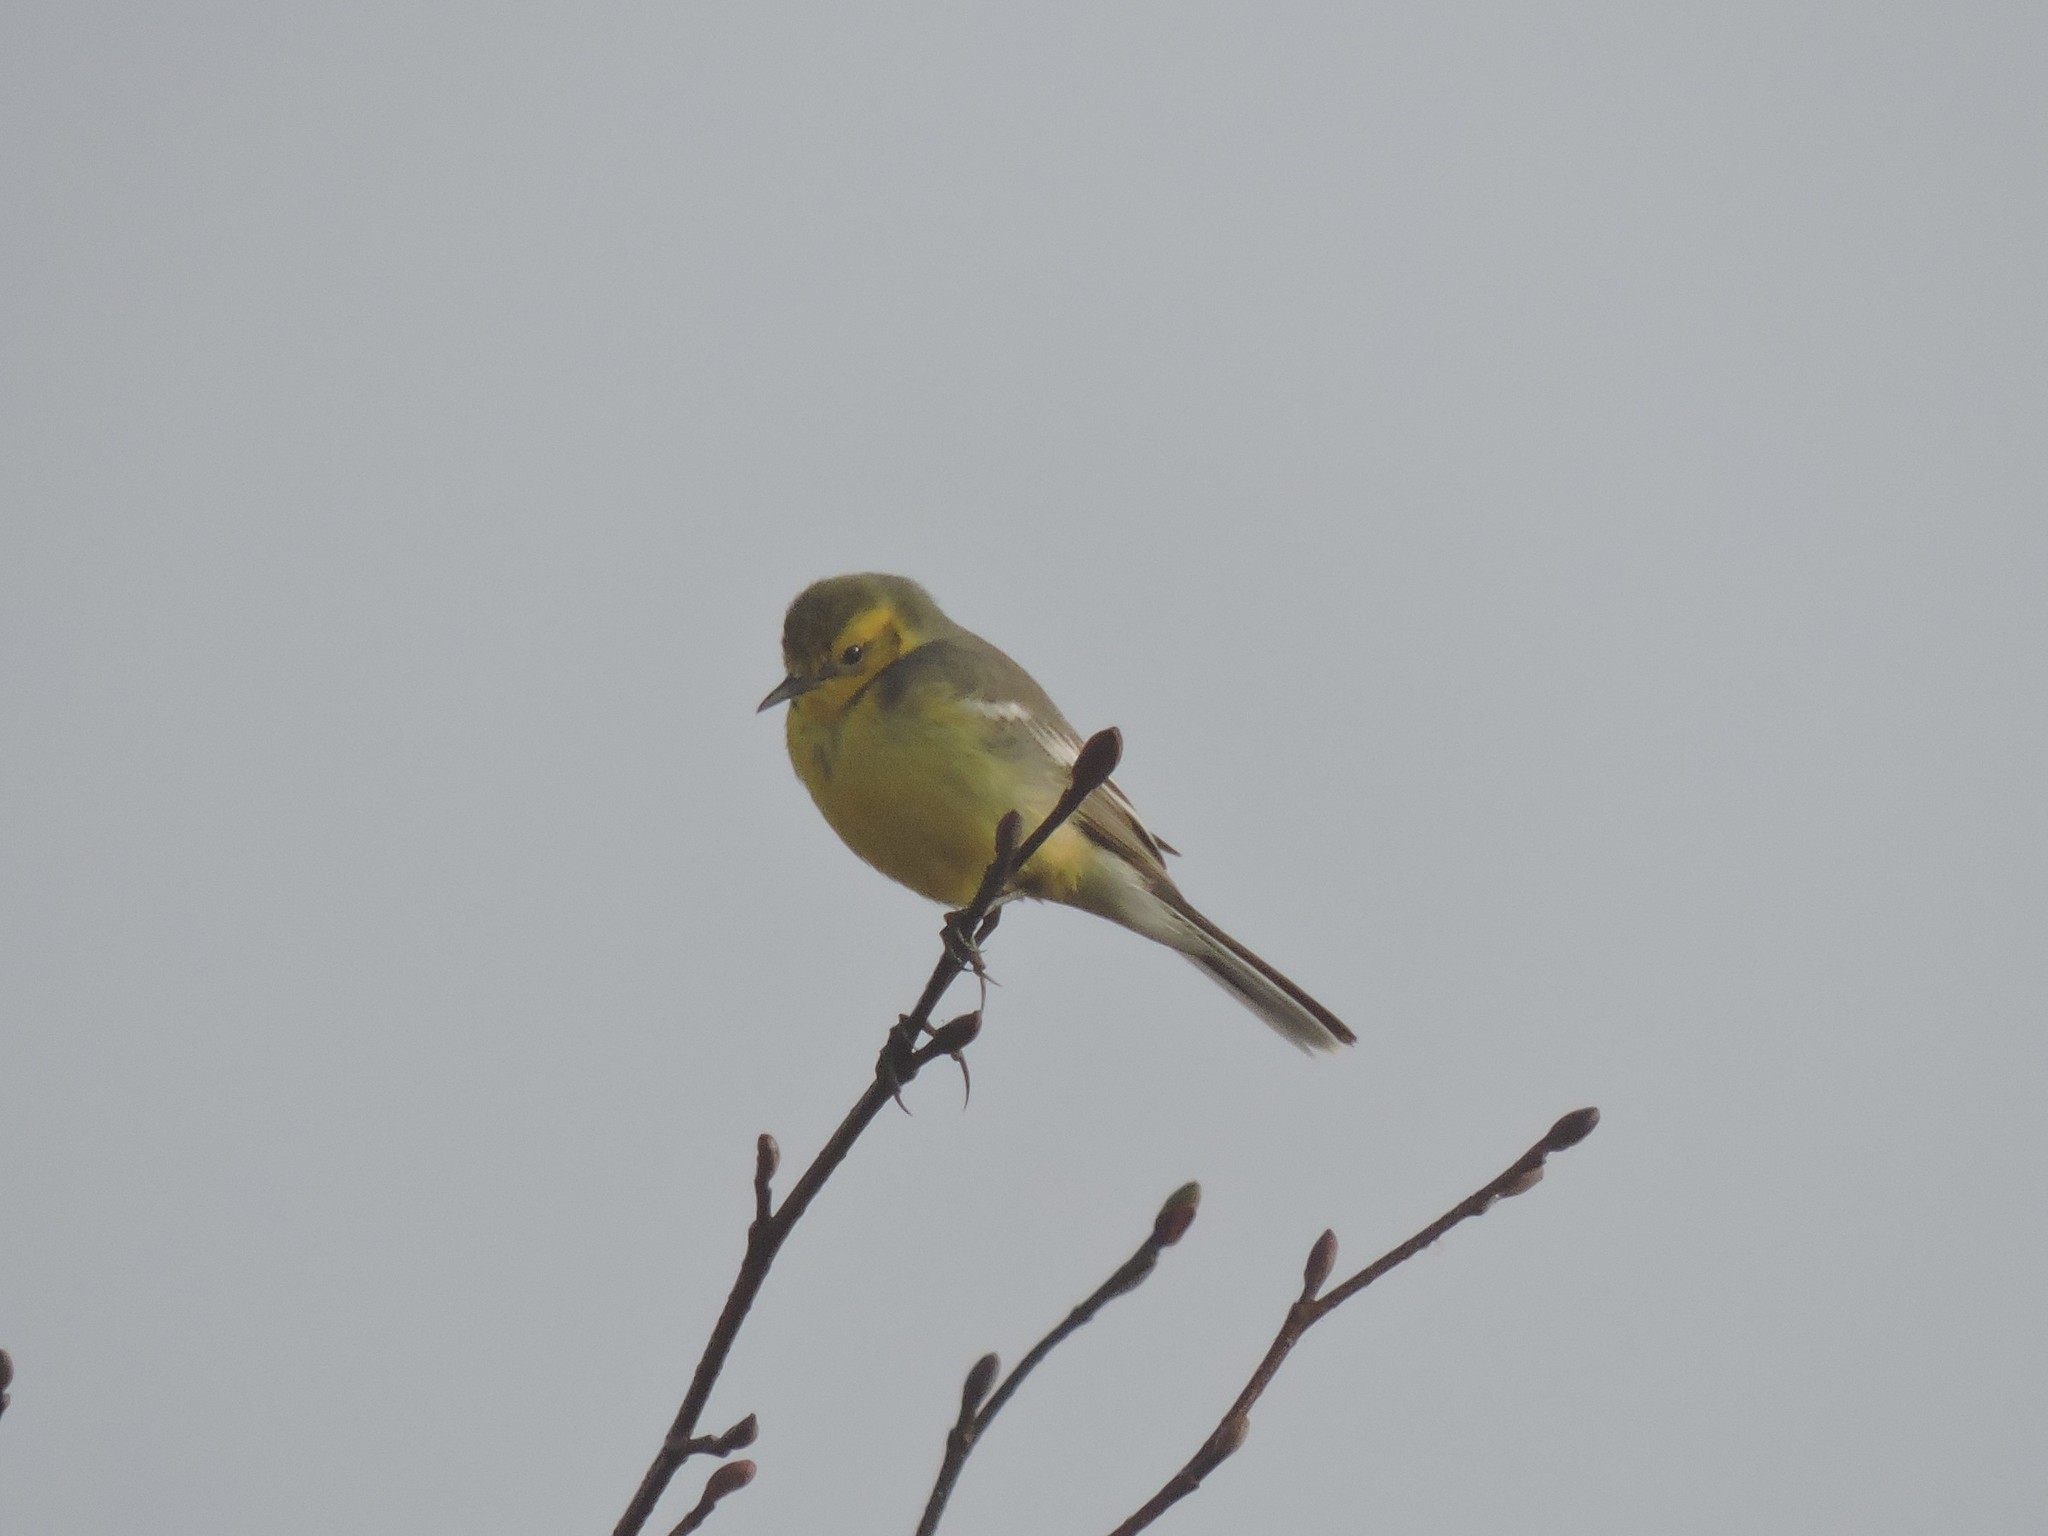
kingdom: Animalia
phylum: Chordata
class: Aves
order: Passeriformes
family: Motacillidae
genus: Motacilla
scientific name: Motacilla citreola
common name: Citrine wagtail
